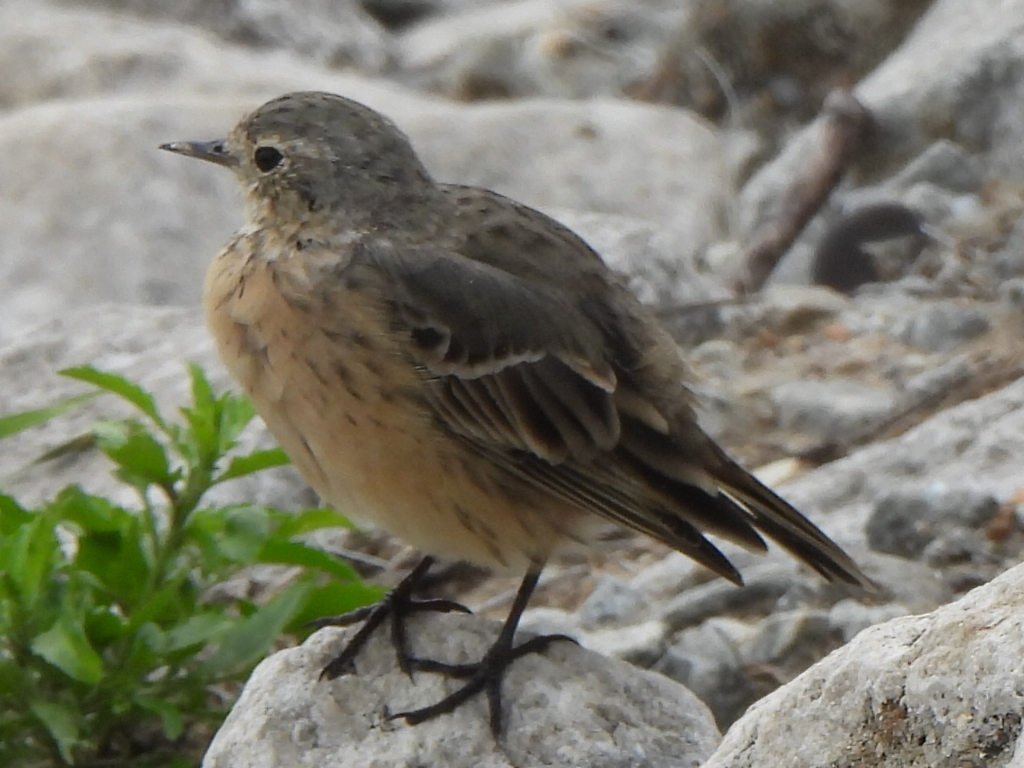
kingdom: Animalia
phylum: Chordata
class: Aves
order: Passeriformes
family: Motacillidae
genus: Anthus
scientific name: Anthus rubescens
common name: Buff-bellied pipit
